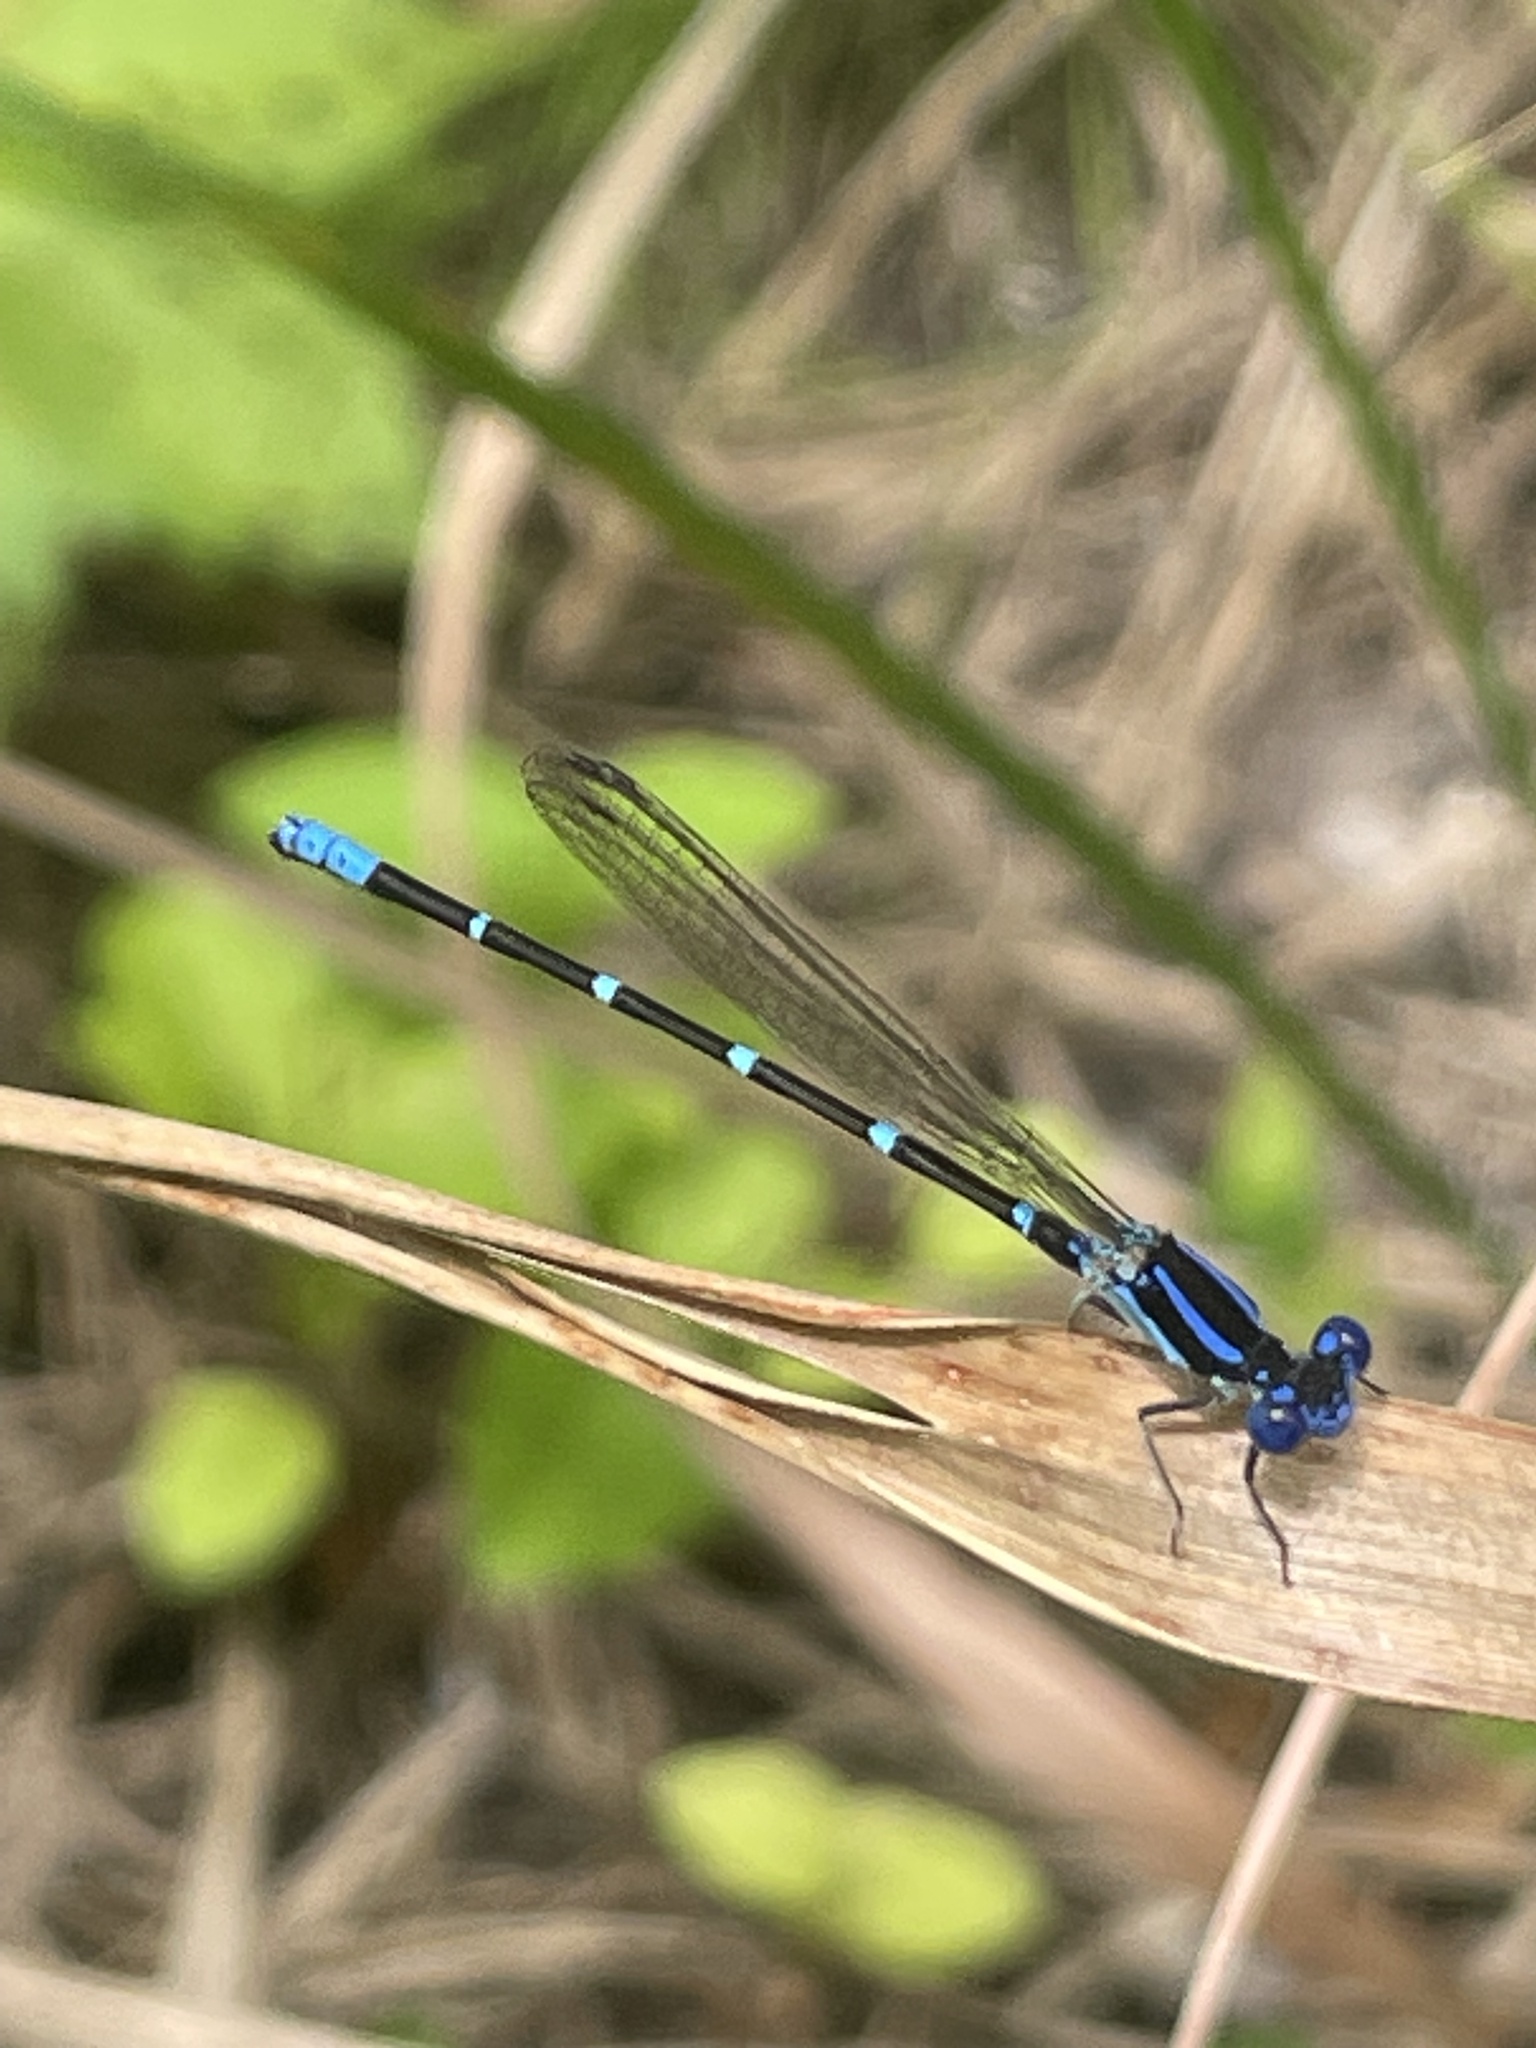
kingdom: Animalia
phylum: Arthropoda
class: Insecta
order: Odonata
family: Coenagrionidae
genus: Argia
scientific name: Argia sedula
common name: Blue-ringed dancer
